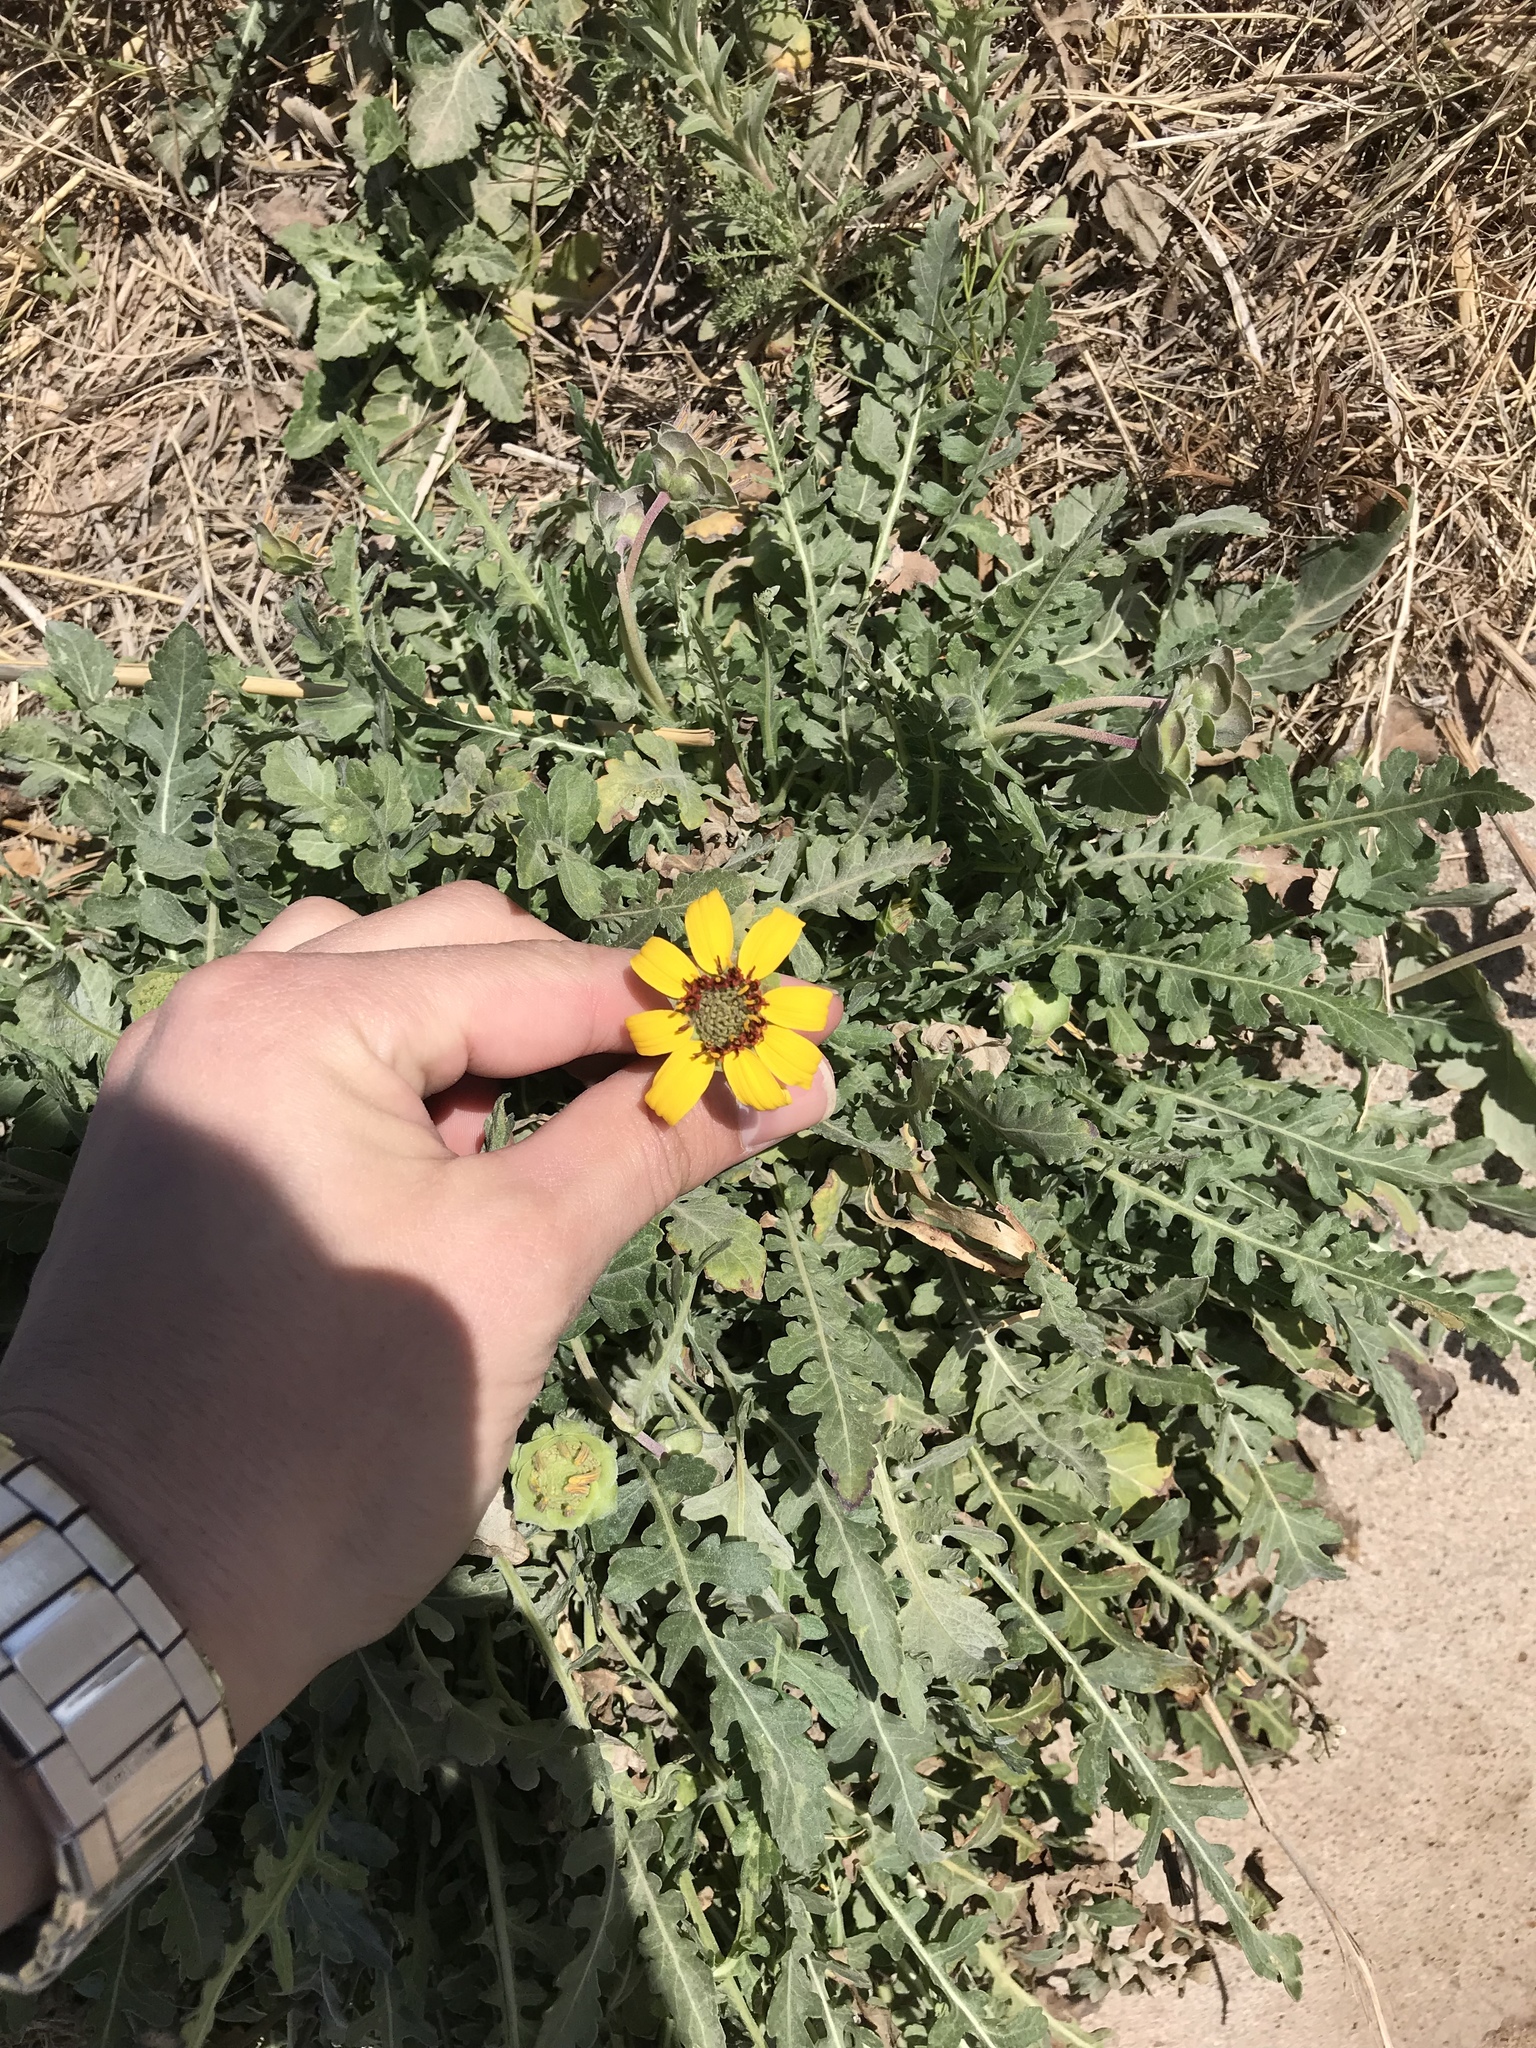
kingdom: Plantae
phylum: Tracheophyta
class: Magnoliopsida
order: Asterales
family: Asteraceae
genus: Berlandiera
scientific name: Berlandiera lyrata
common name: Chocolate-flower
